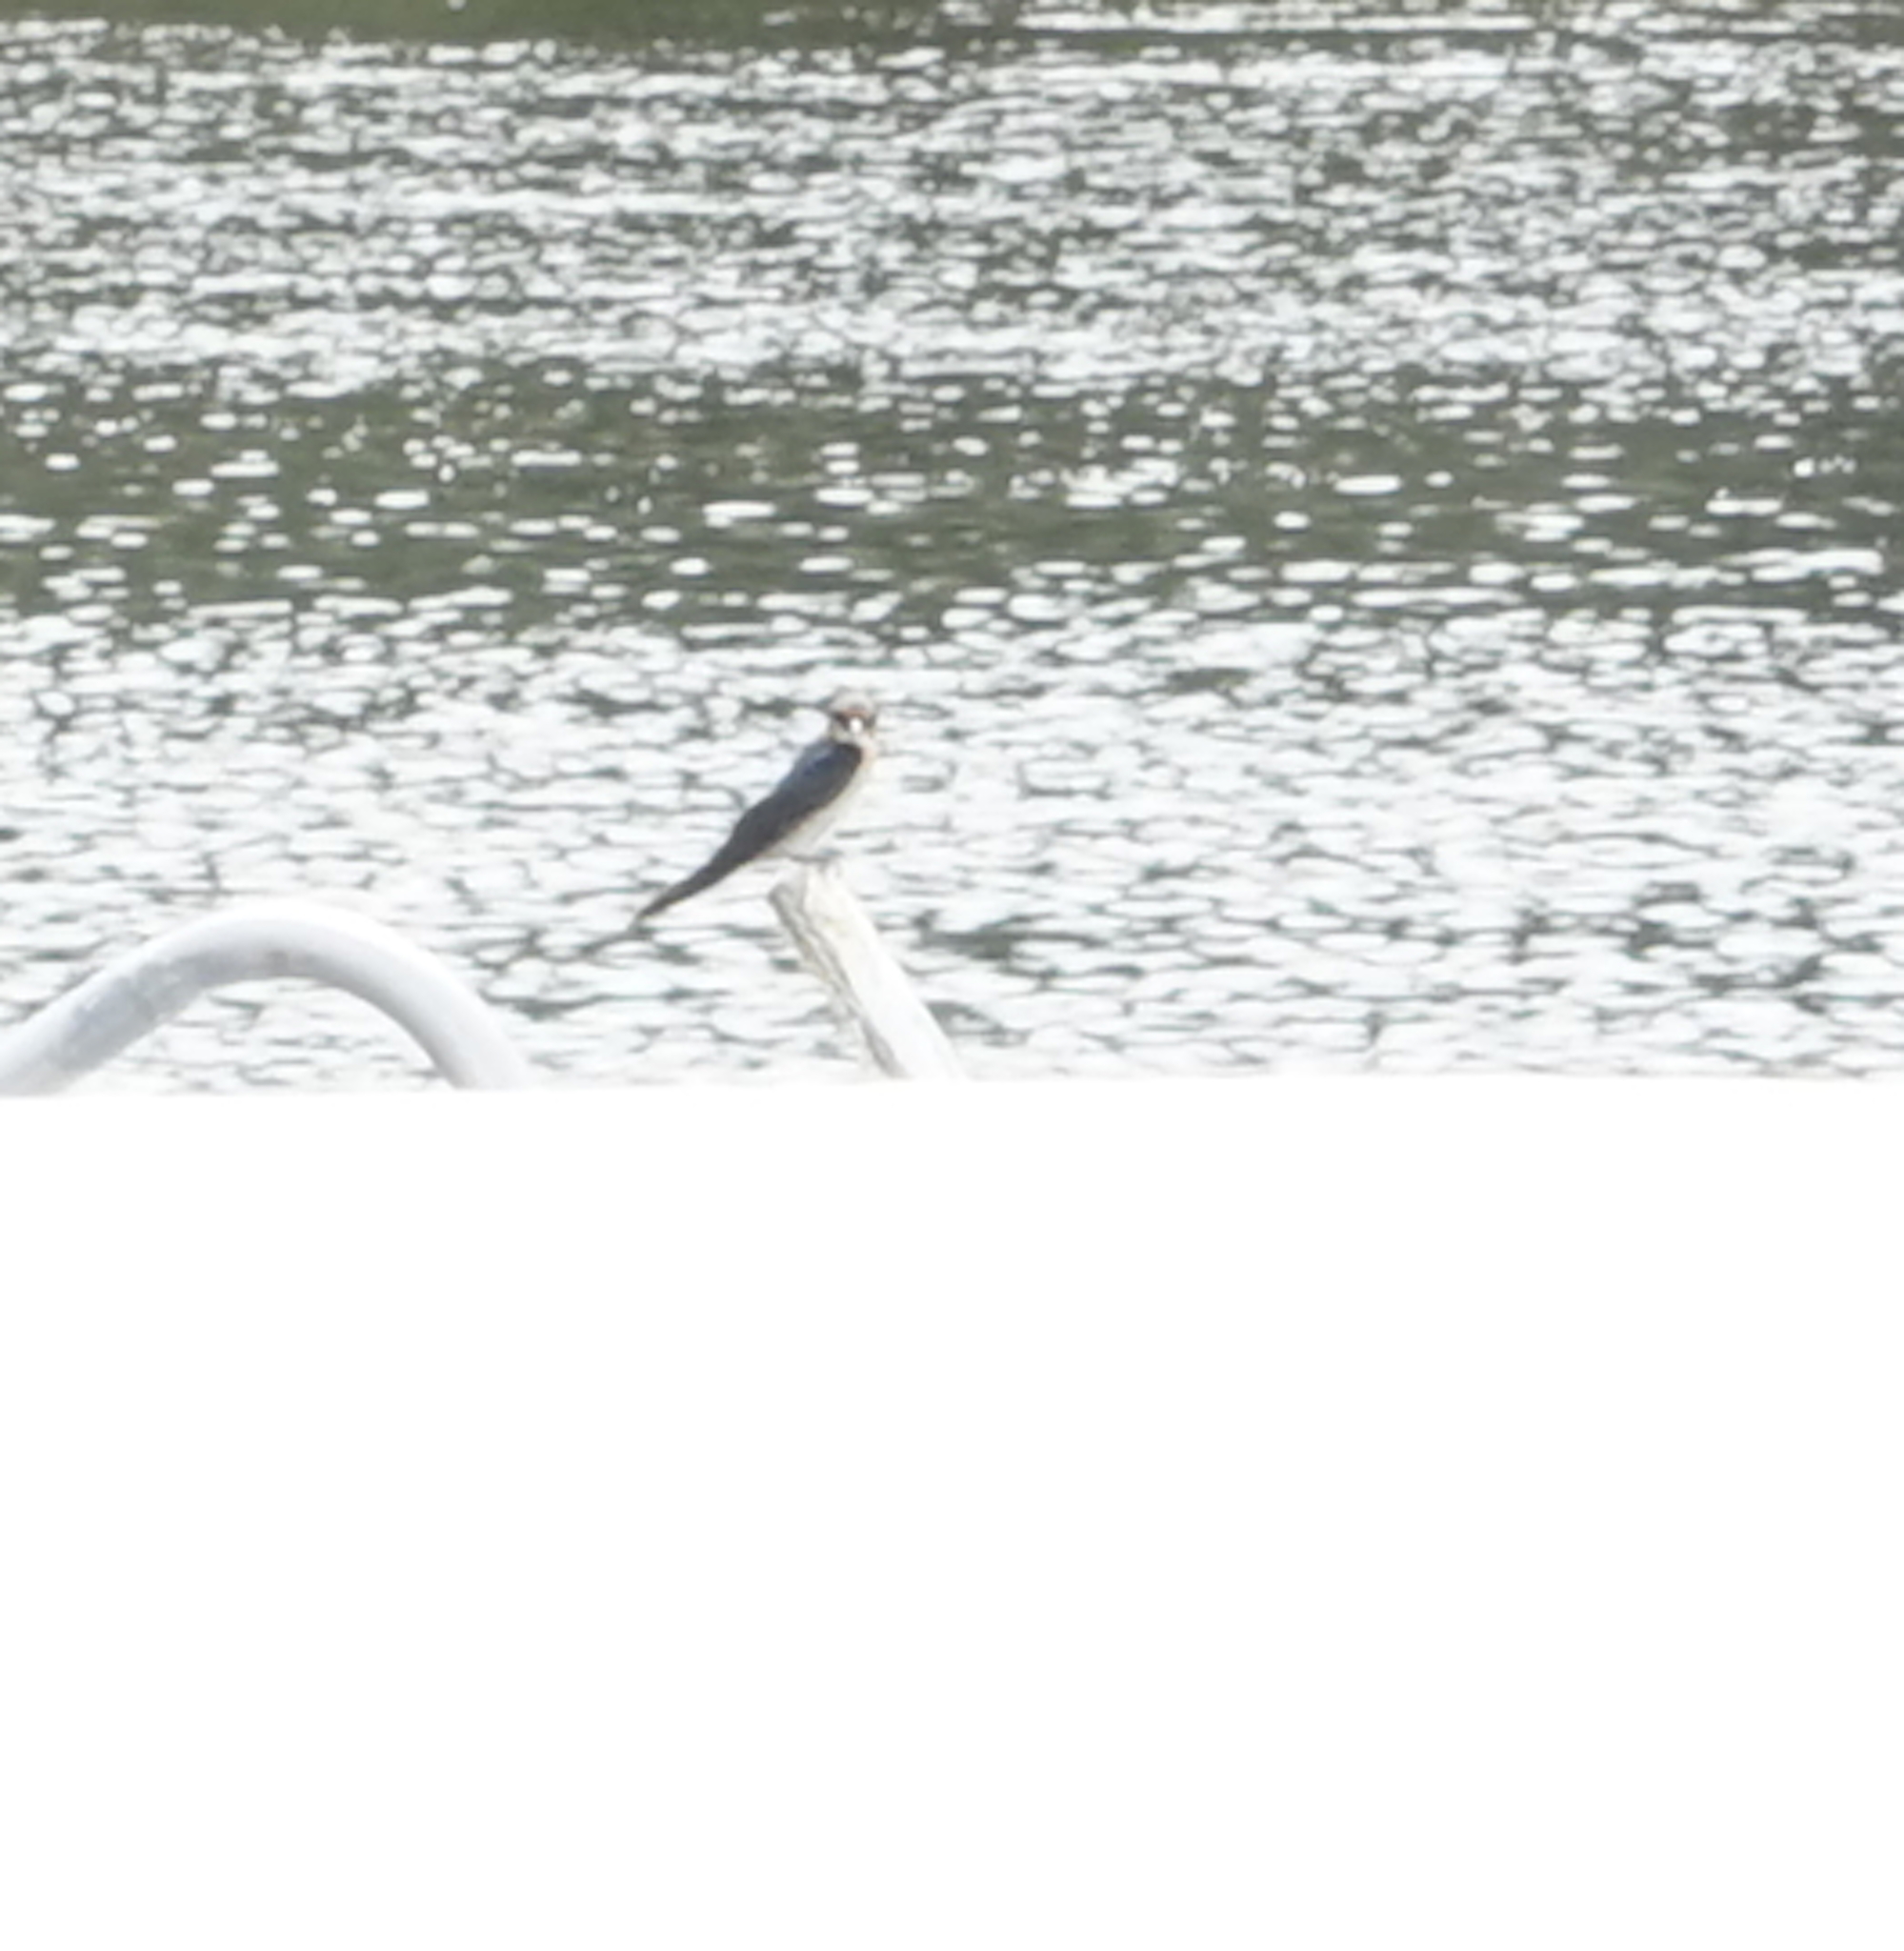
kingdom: Animalia
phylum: Chordata
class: Aves
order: Passeriformes
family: Hirundinidae
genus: Hirundo
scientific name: Hirundo tahitica
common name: Pacific swallow
